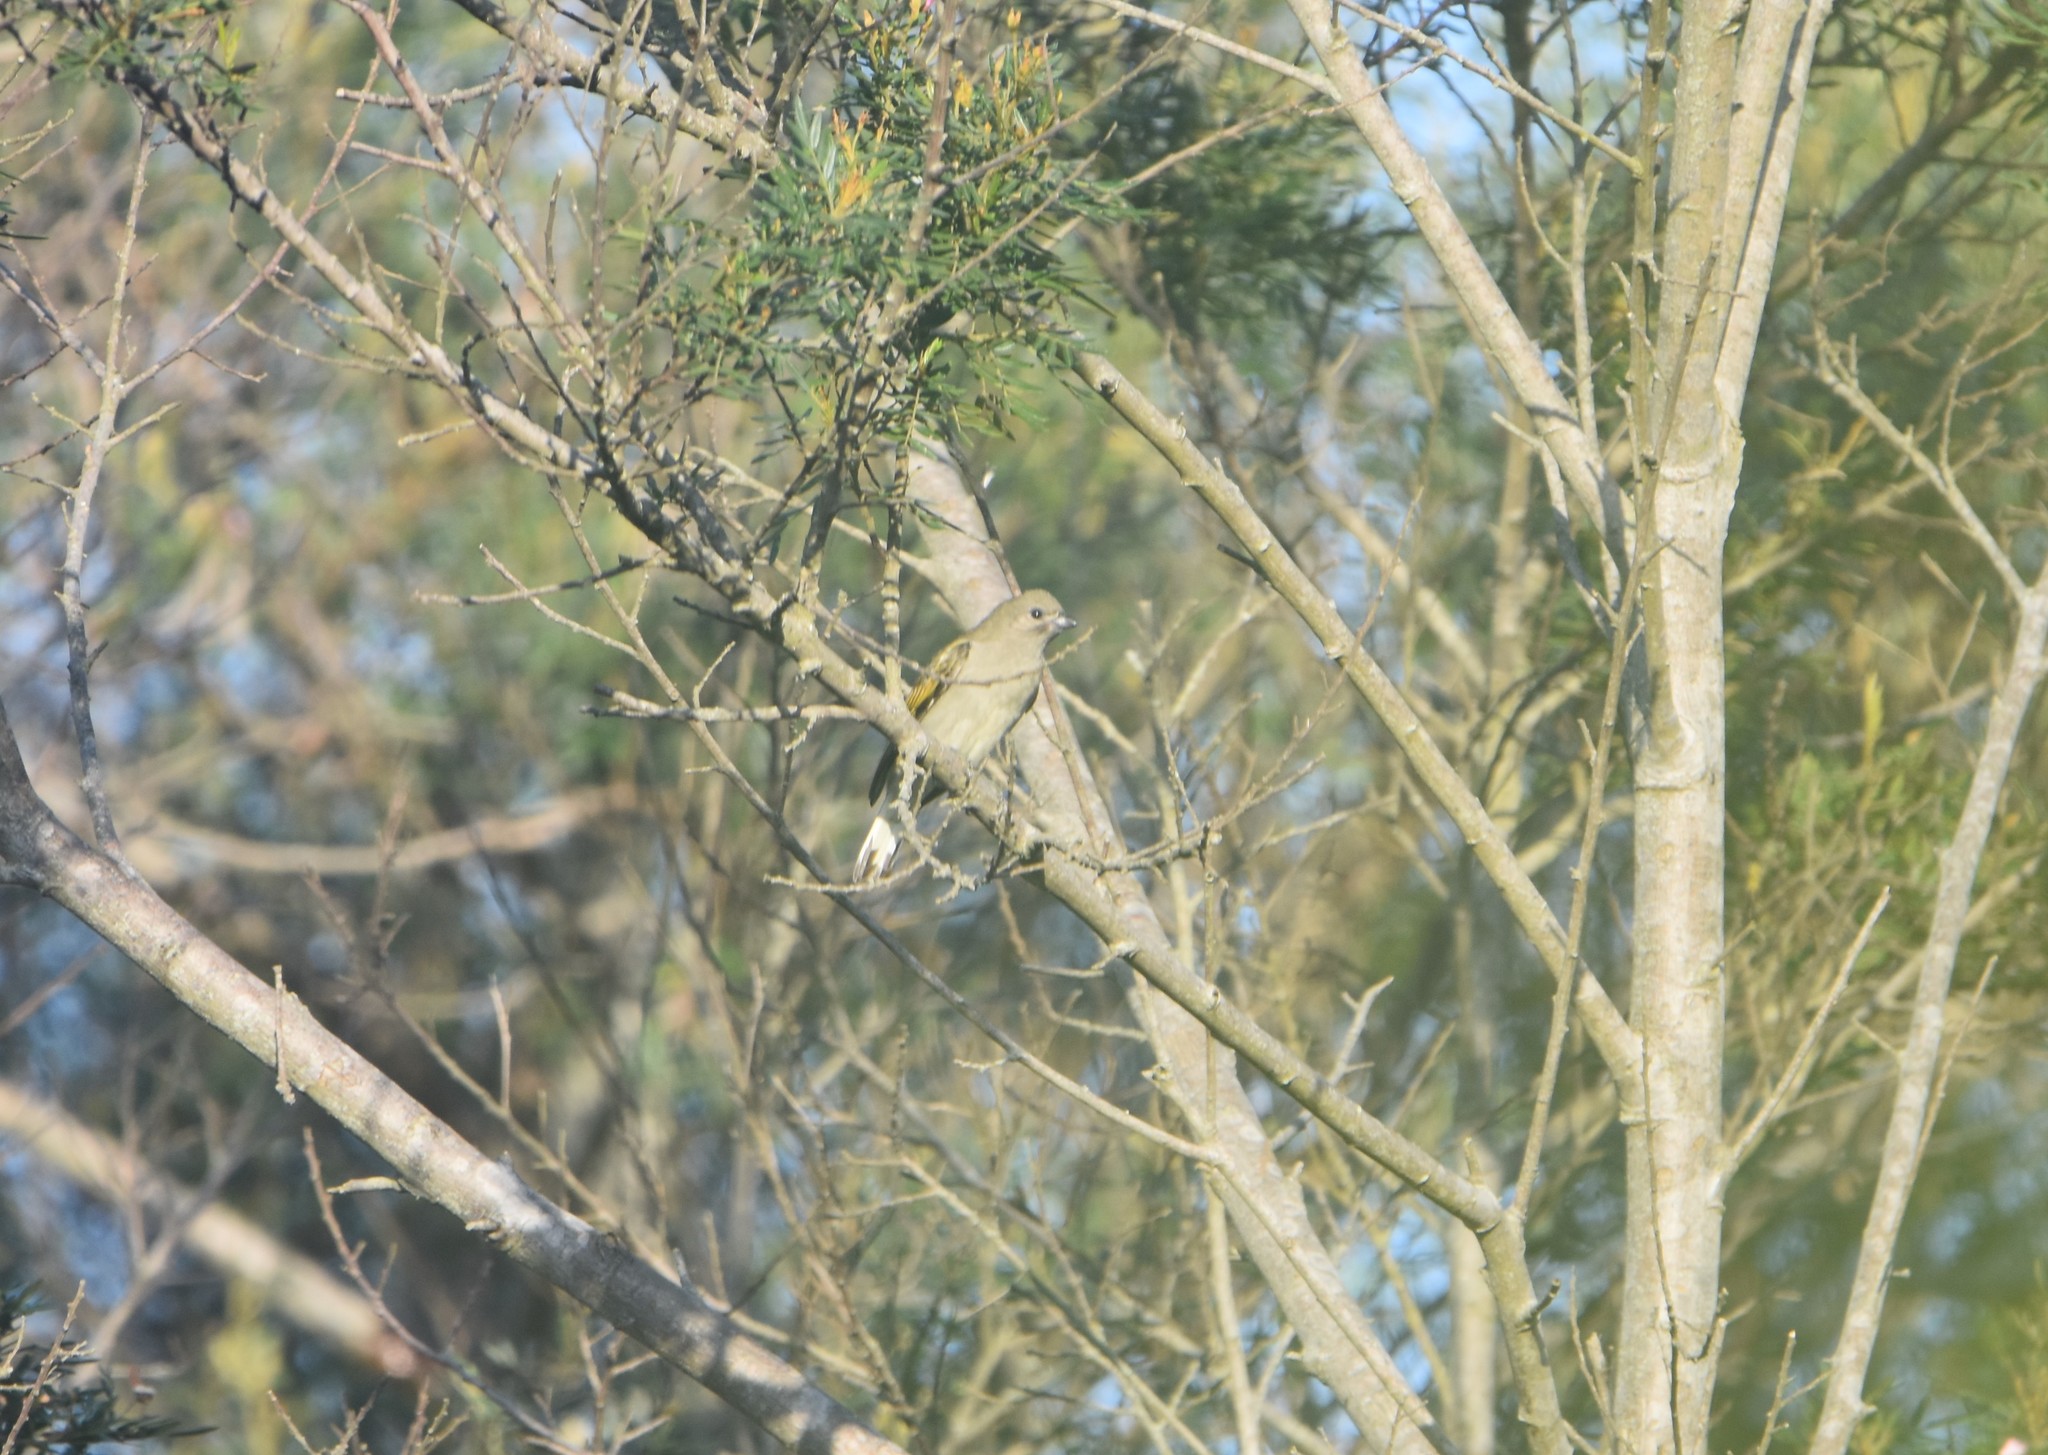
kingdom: Animalia
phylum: Chordata
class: Aves
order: Piciformes
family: Indicatoridae
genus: Indicator
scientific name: Indicator minor
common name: Lesser honeyguide
